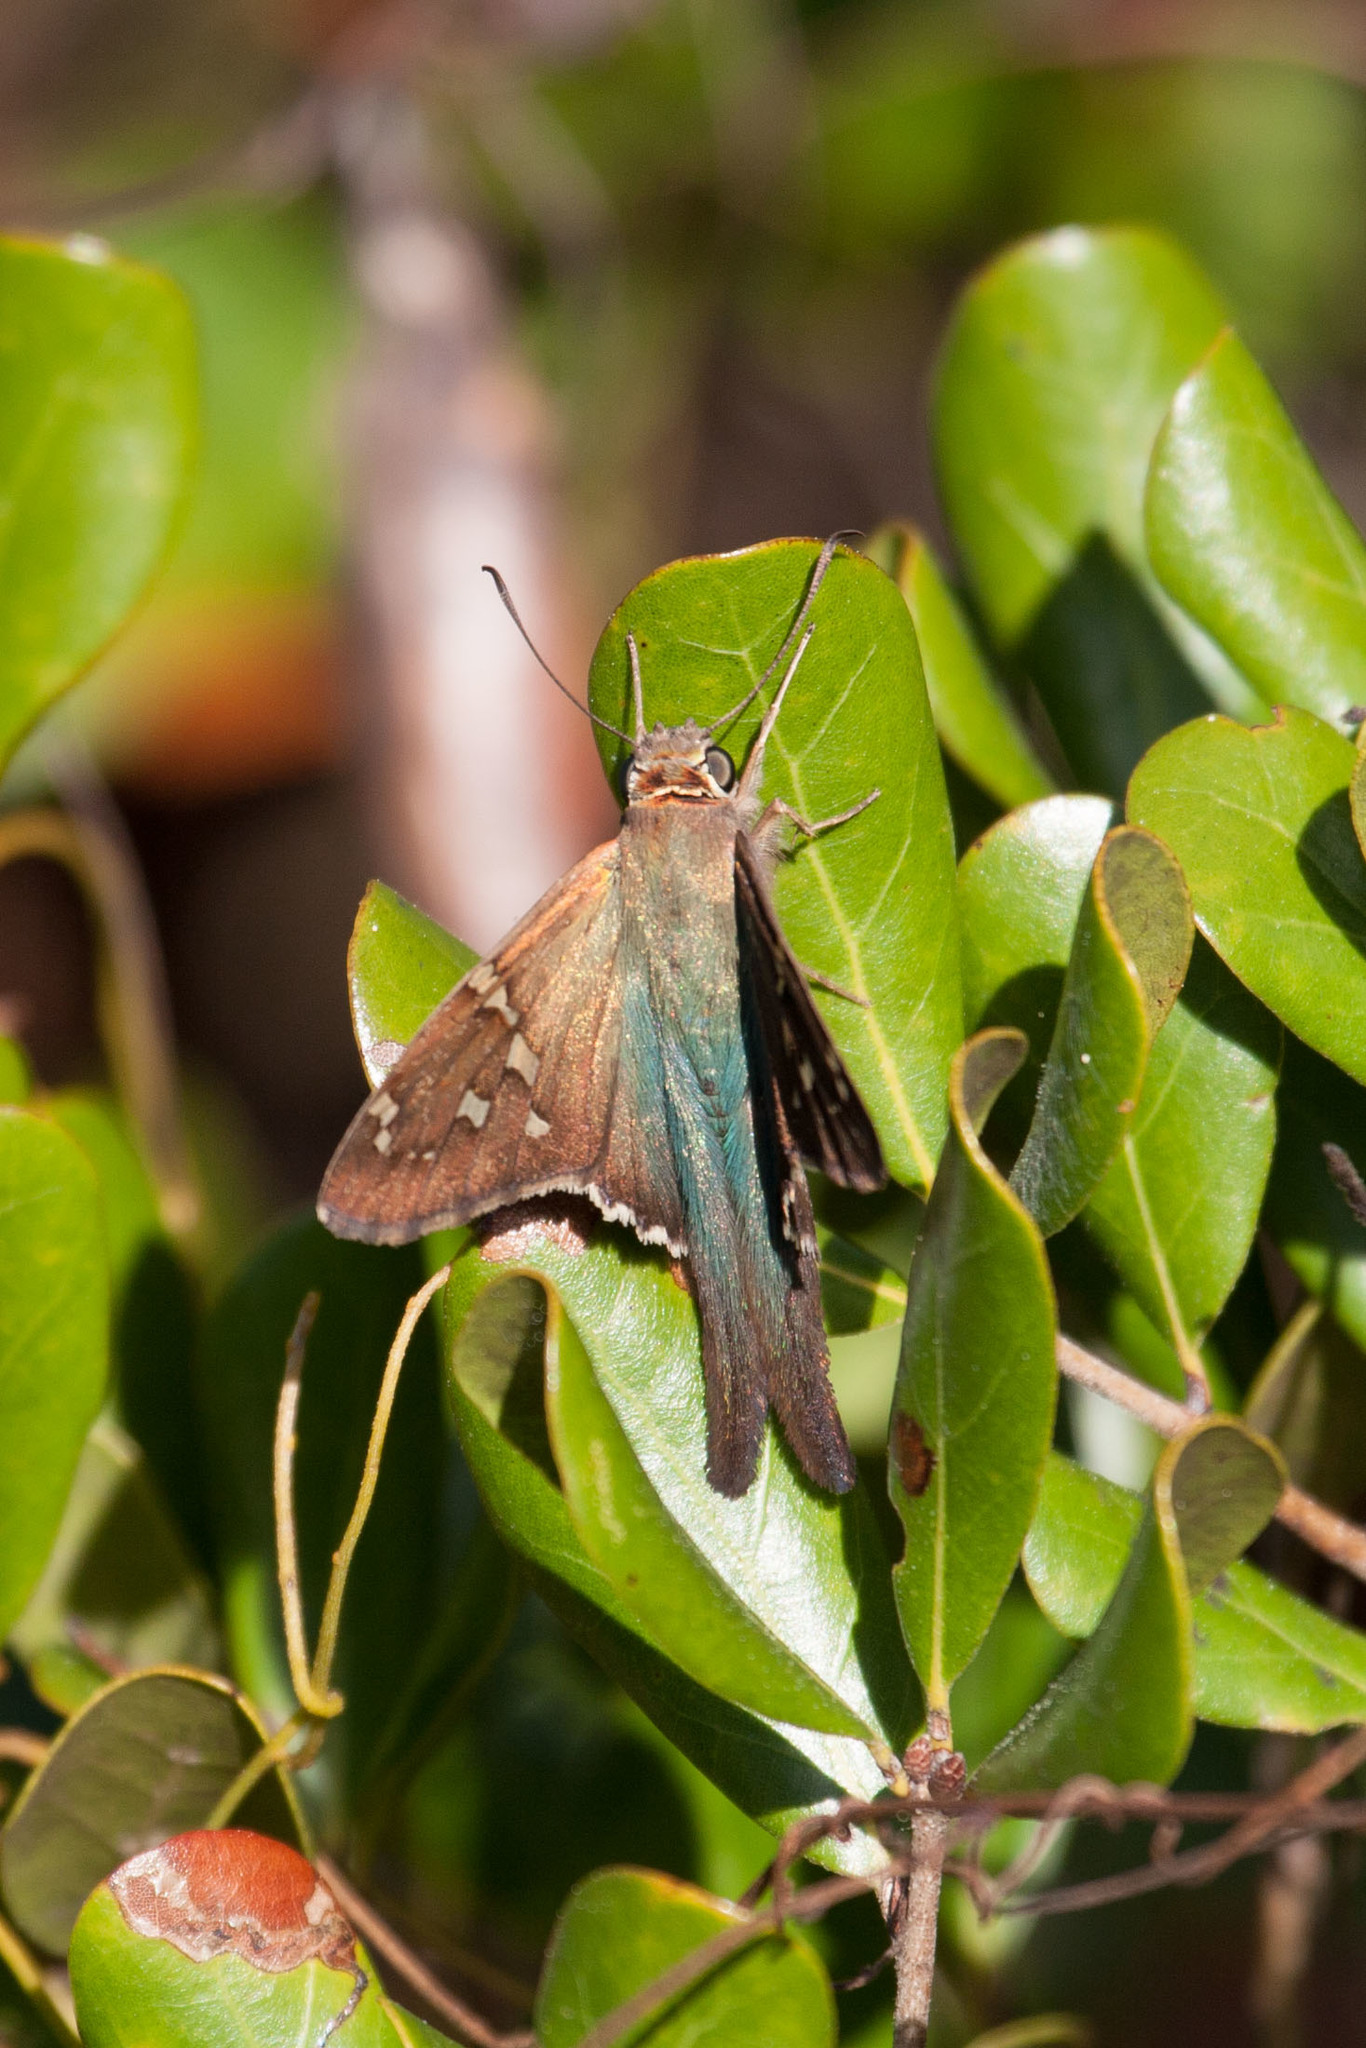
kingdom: Animalia
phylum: Arthropoda
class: Insecta
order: Lepidoptera
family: Hesperiidae
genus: Urbanus
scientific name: Urbanus proteus
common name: Long-tailed skipper
